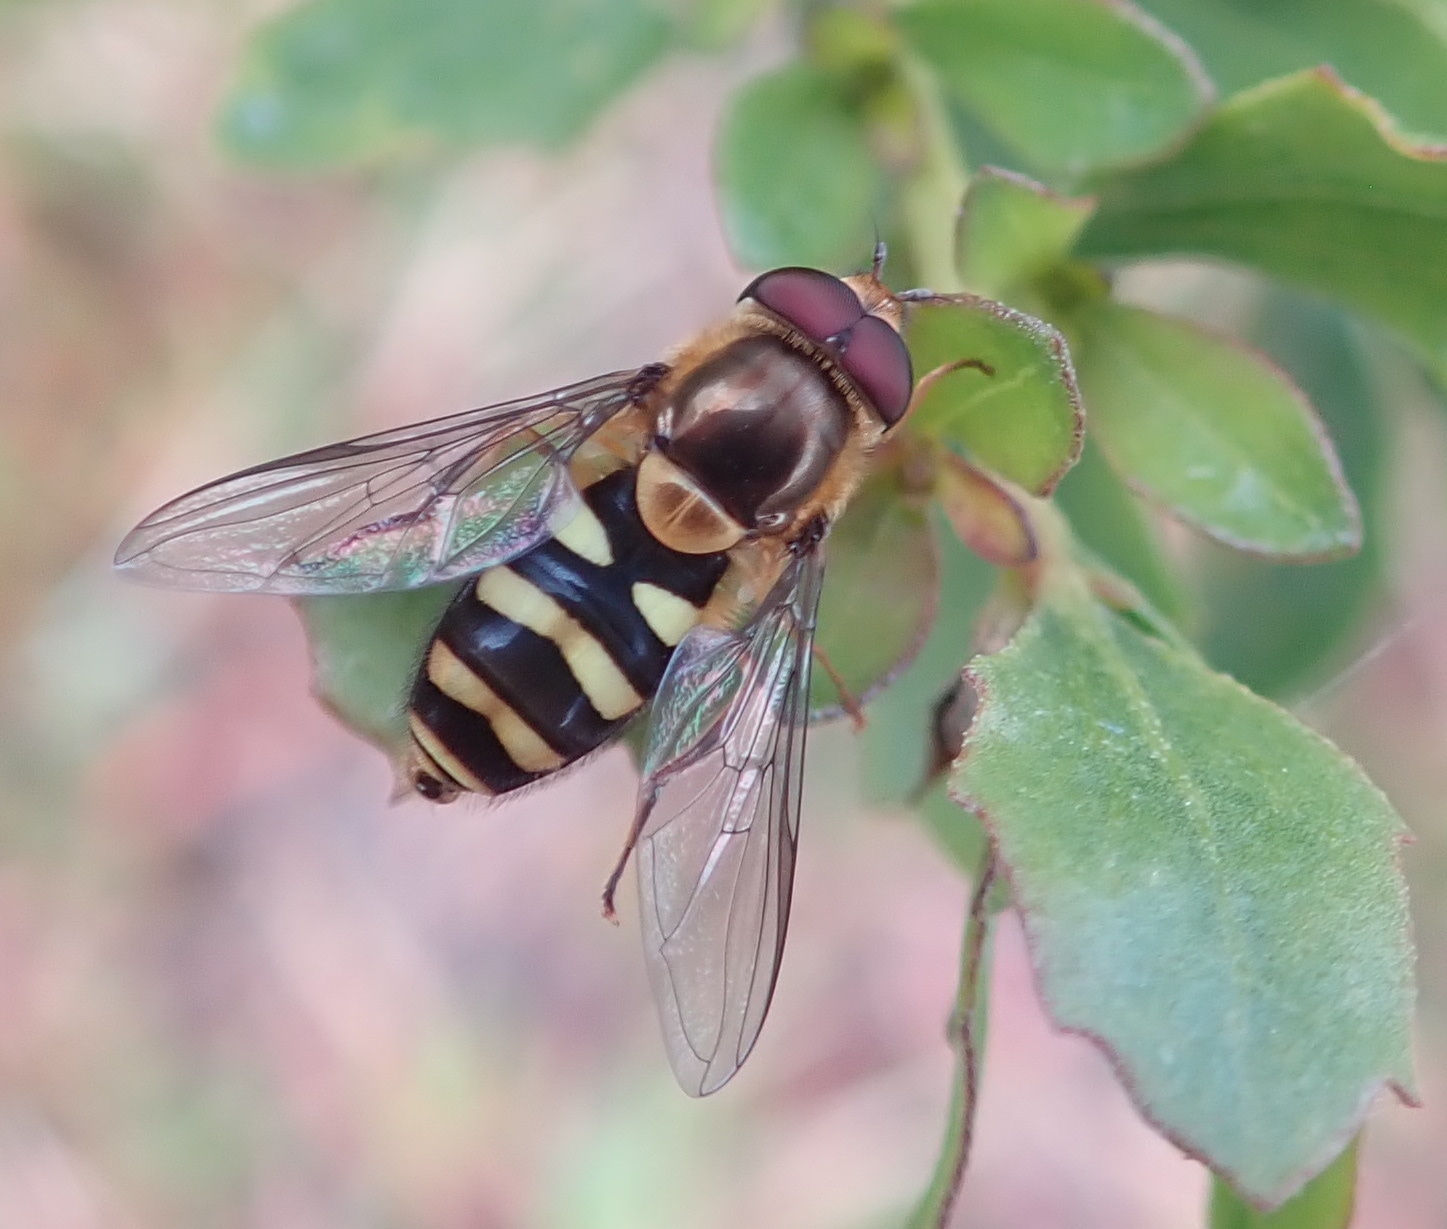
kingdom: Animalia
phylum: Arthropoda
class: Insecta
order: Diptera
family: Syrphidae
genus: Syrphus
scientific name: Syrphus opinator
